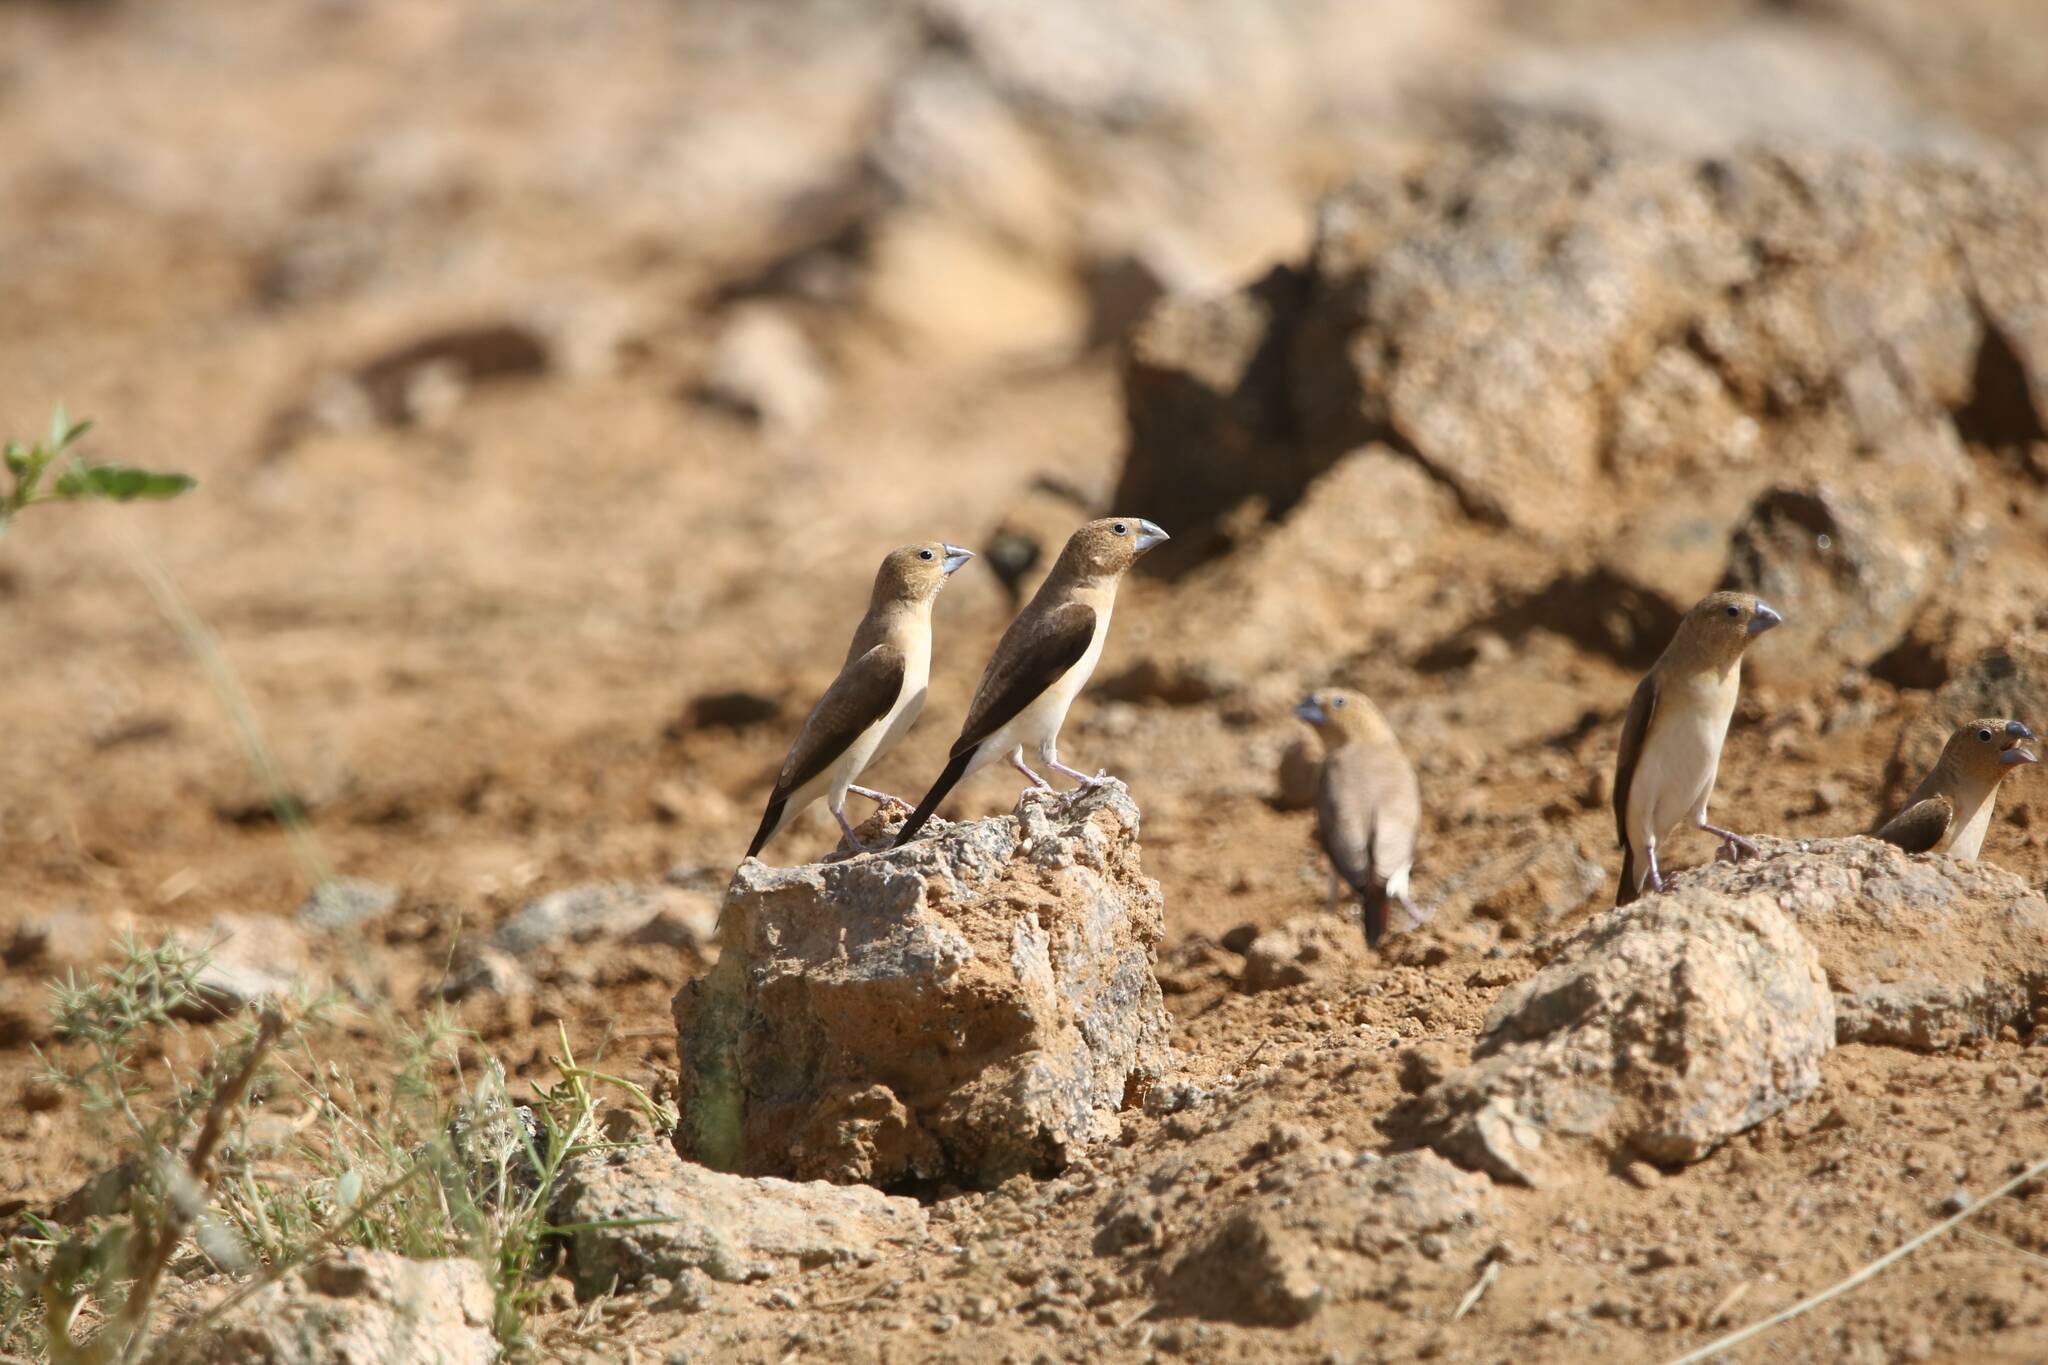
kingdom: Animalia
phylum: Chordata
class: Aves
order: Passeriformes
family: Estrildidae
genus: Euodice
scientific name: Euodice cantans
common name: African silverbill
